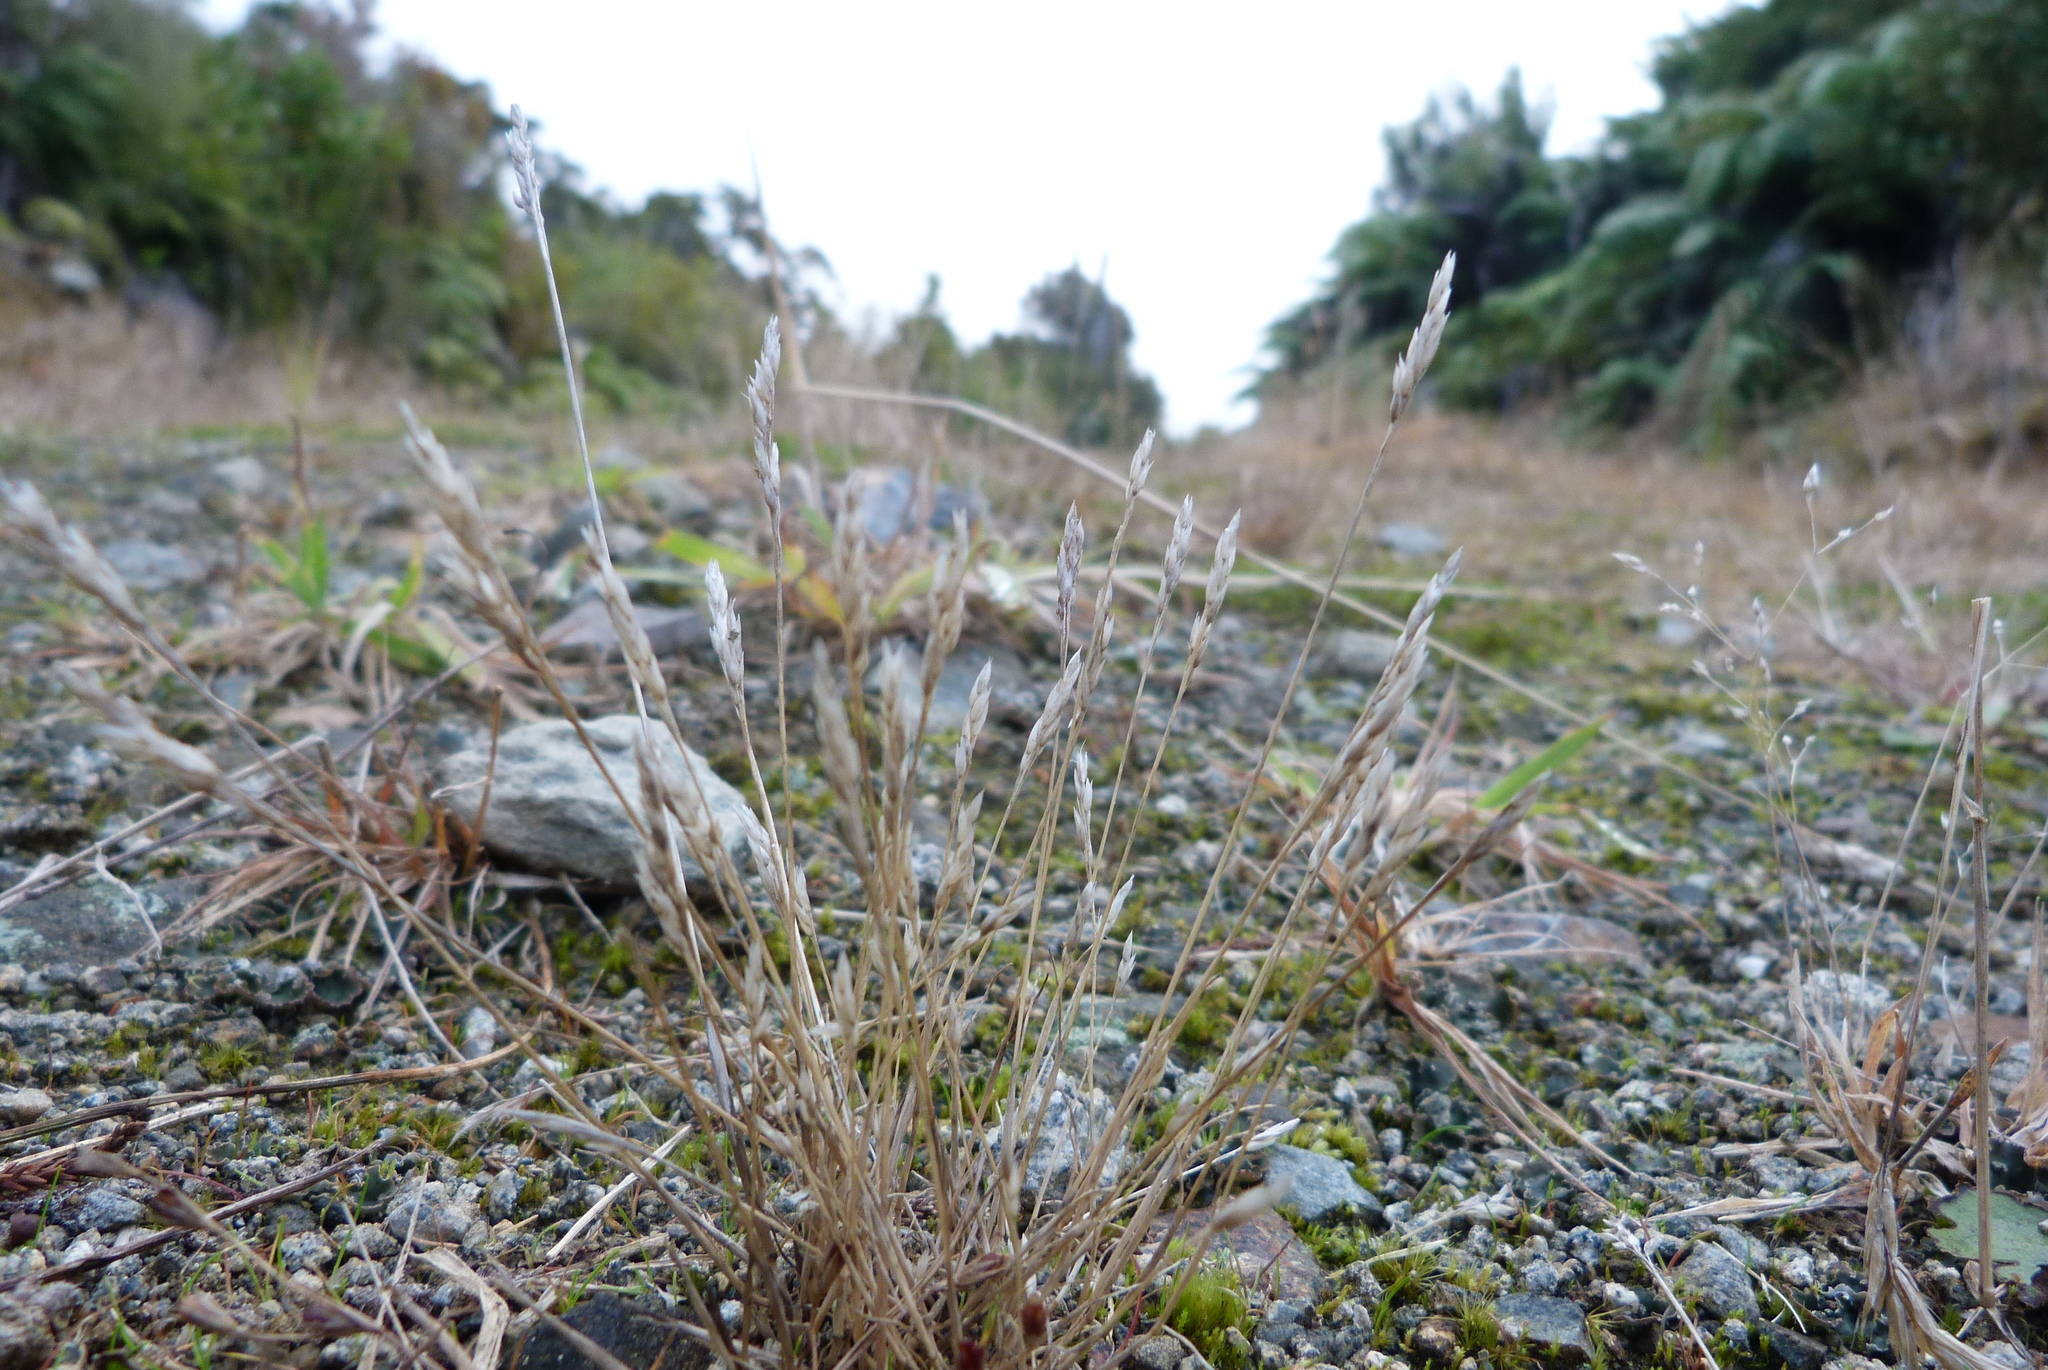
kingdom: Plantae
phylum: Tracheophyta
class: Liliopsida
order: Poales
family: Poaceae
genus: Aira
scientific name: Aira praecox
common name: Early hair-grass
